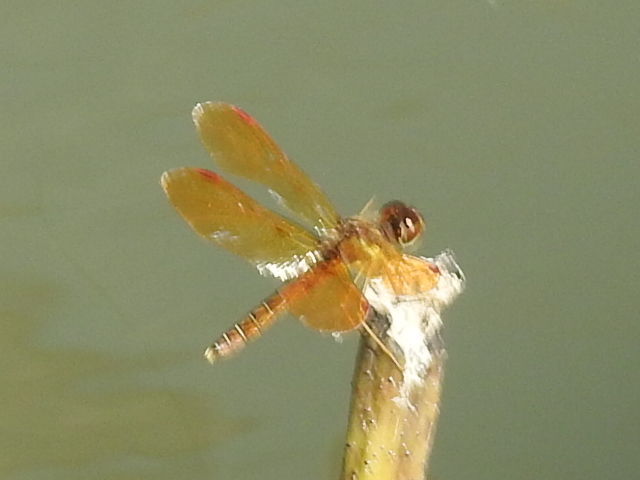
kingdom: Animalia
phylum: Arthropoda
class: Insecta
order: Odonata
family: Libellulidae
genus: Perithemis
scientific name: Perithemis tenera
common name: Eastern amberwing
